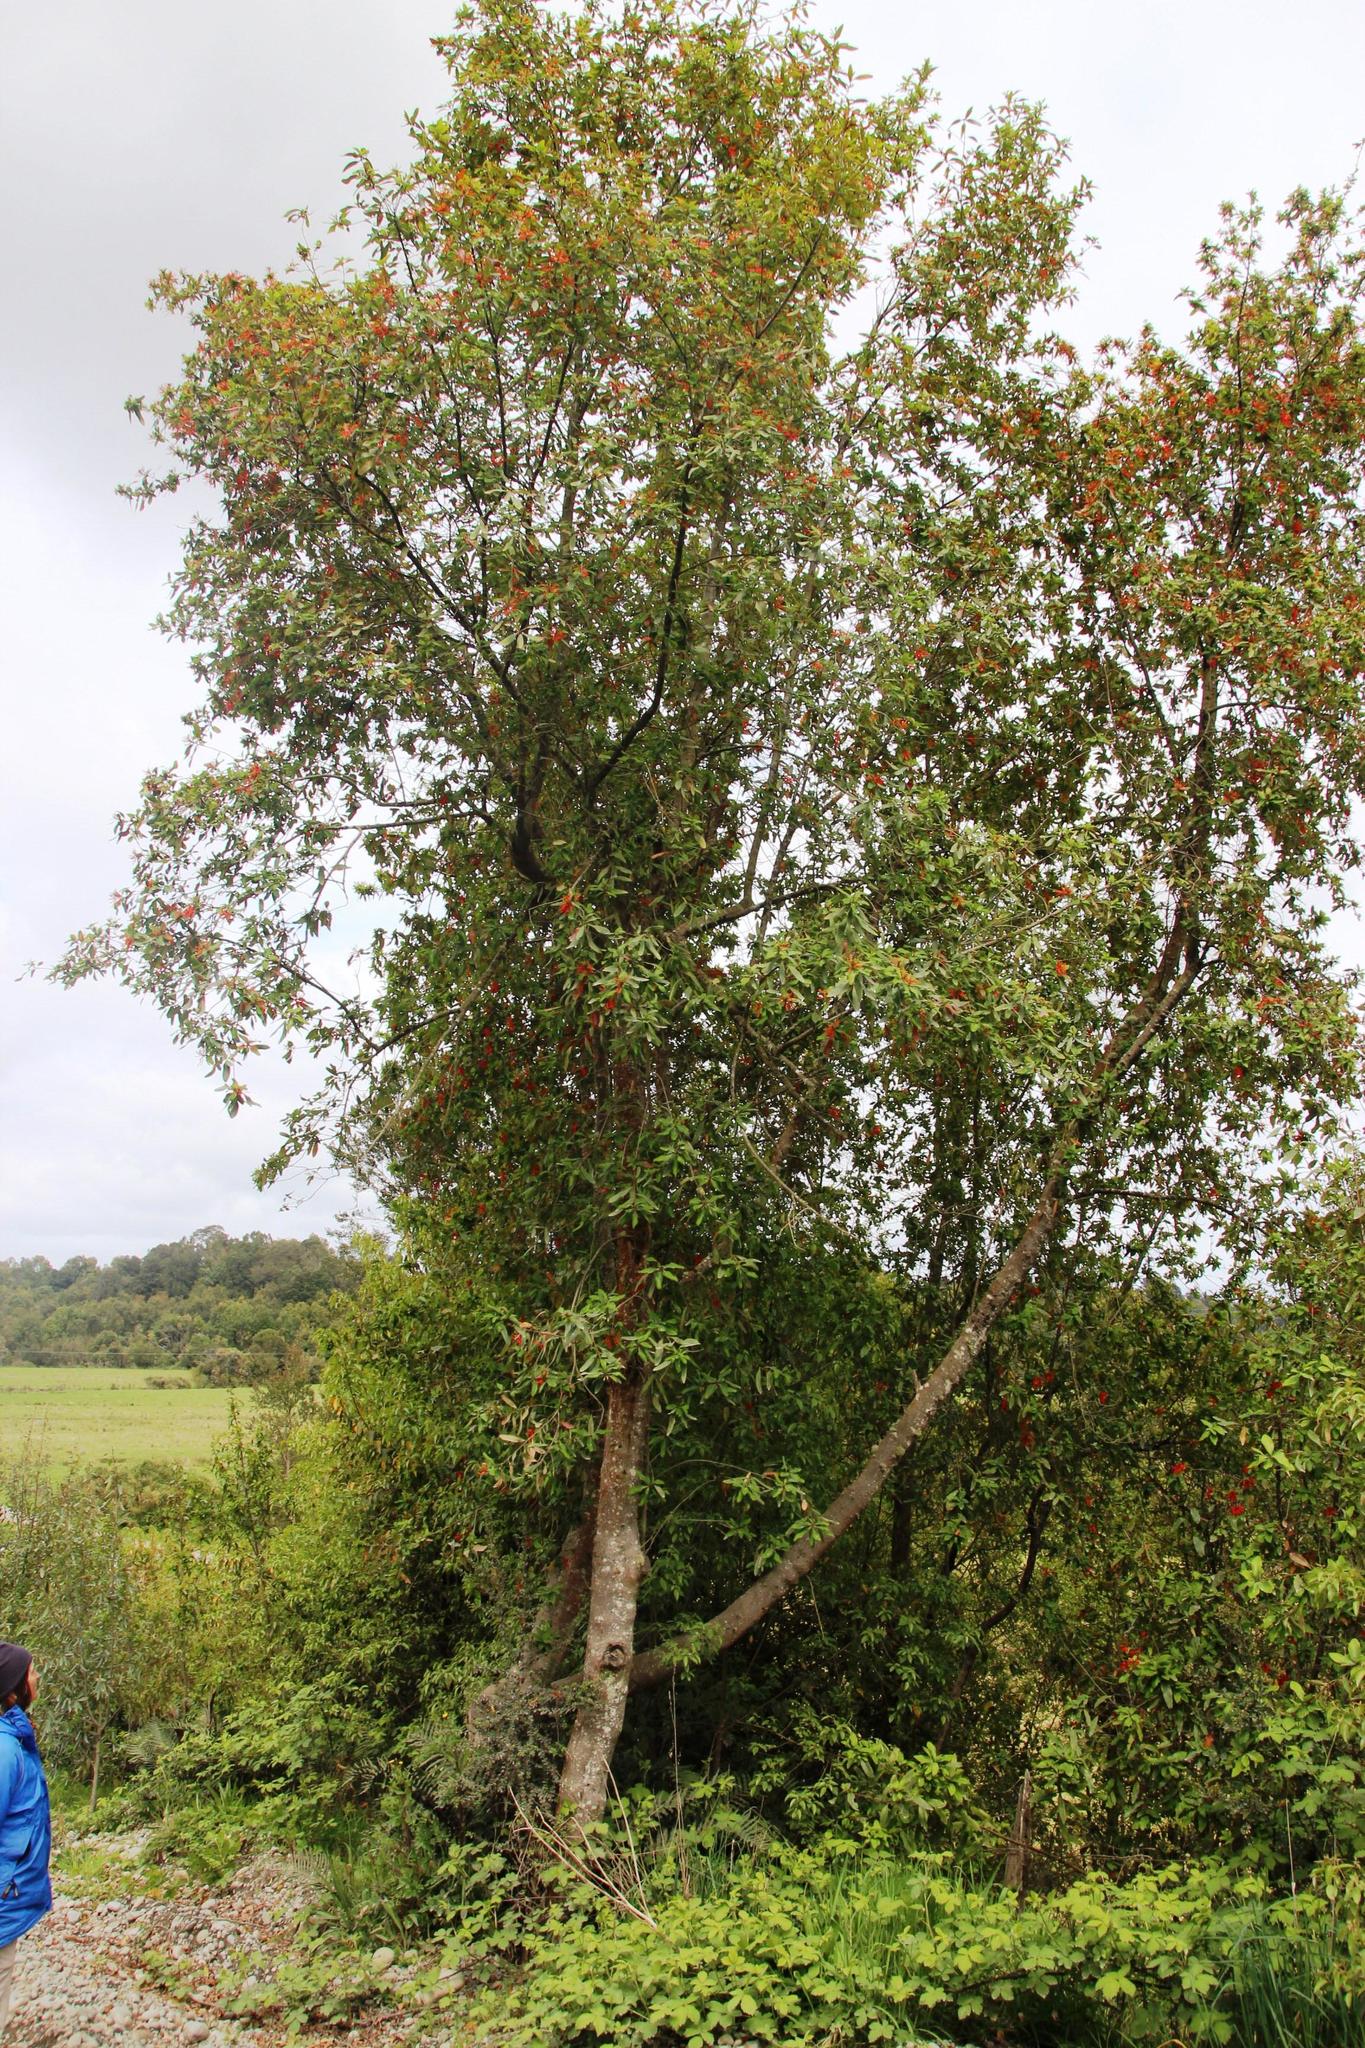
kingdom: Plantae
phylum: Tracheophyta
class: Magnoliopsida
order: Proteales
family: Proteaceae
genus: Embothrium
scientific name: Embothrium coccineum
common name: Chilean firebush
